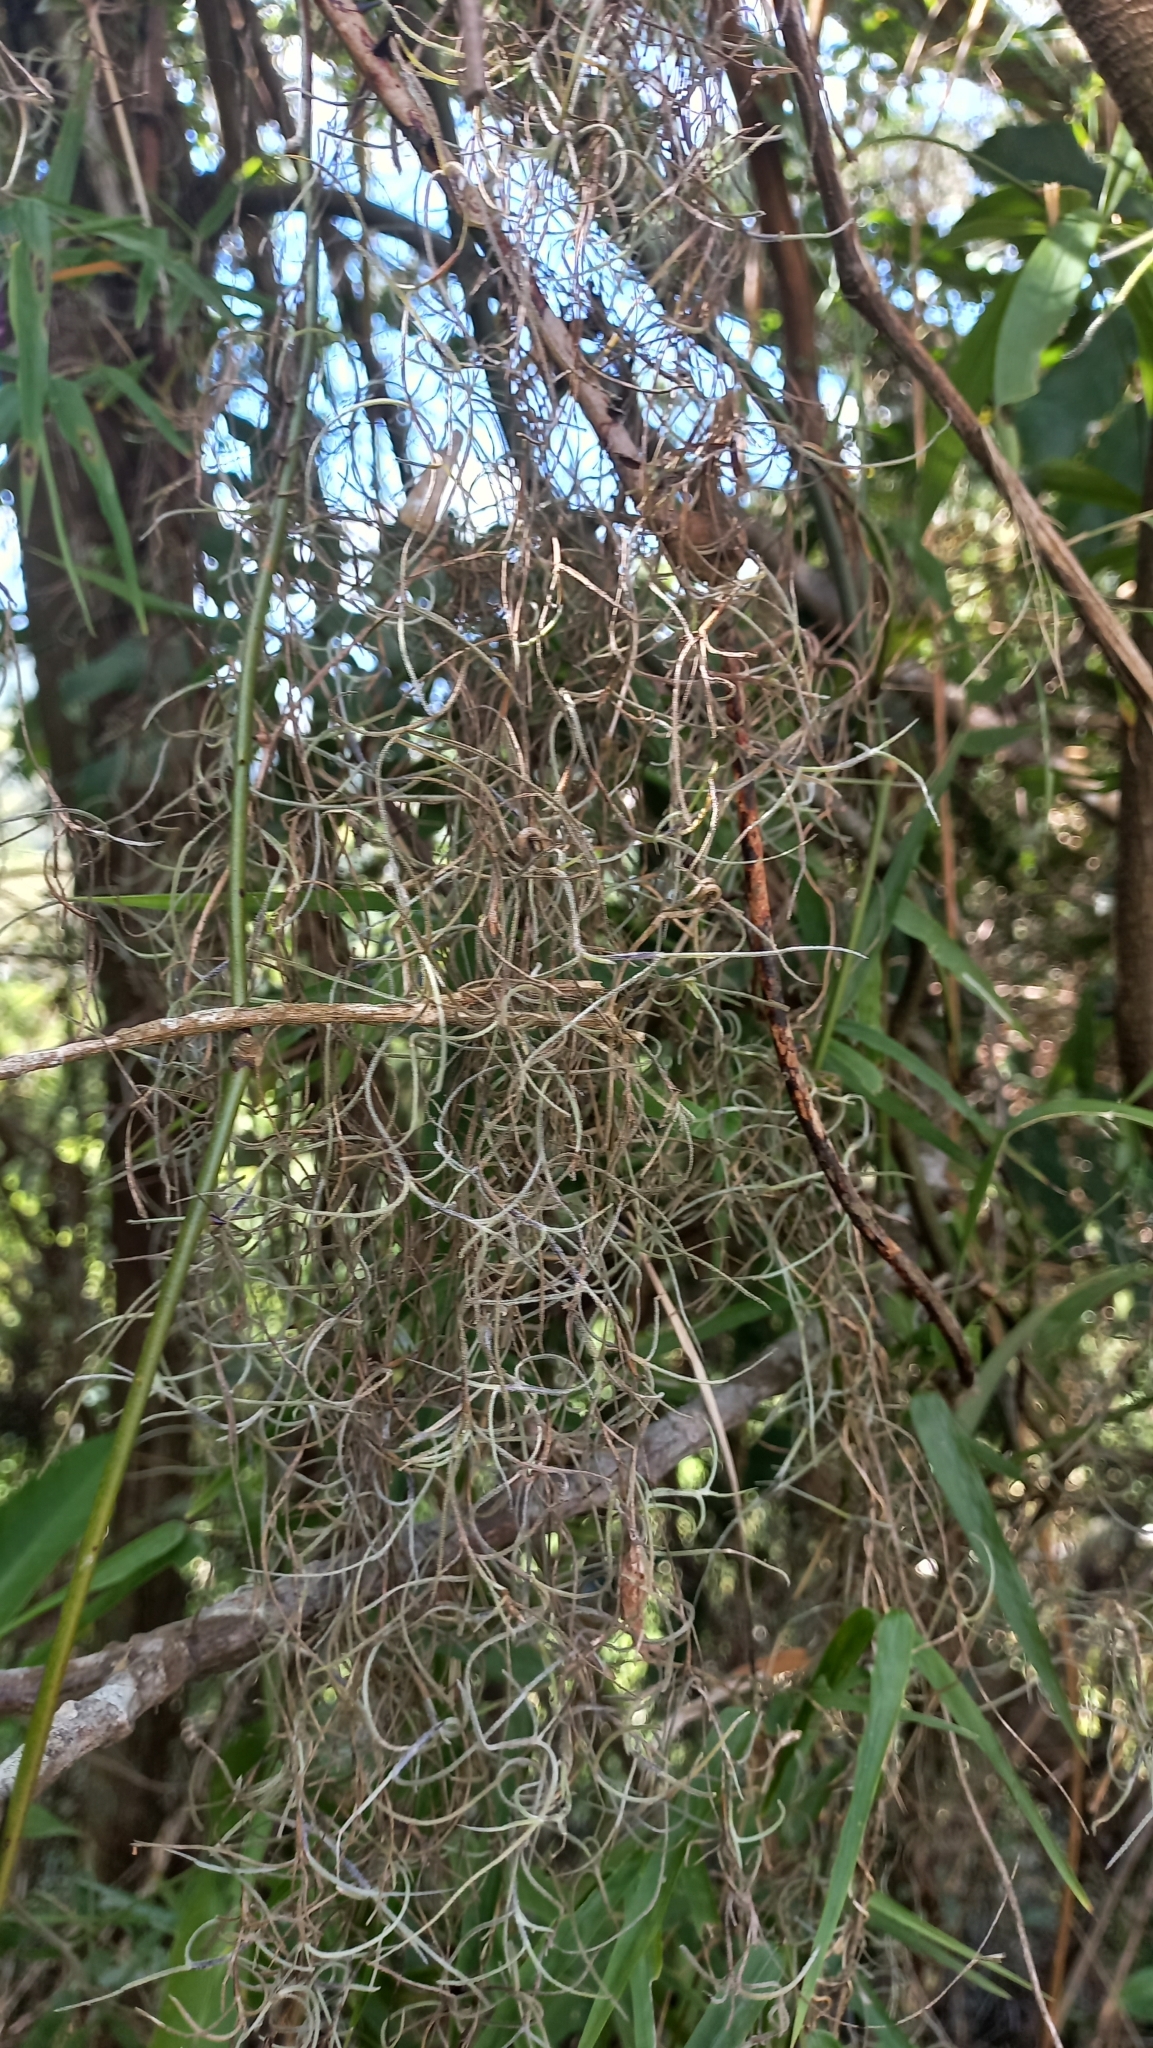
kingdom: Plantae
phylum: Tracheophyta
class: Liliopsida
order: Poales
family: Bromeliaceae
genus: Tillandsia
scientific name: Tillandsia usneoides
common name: Spanish moss
